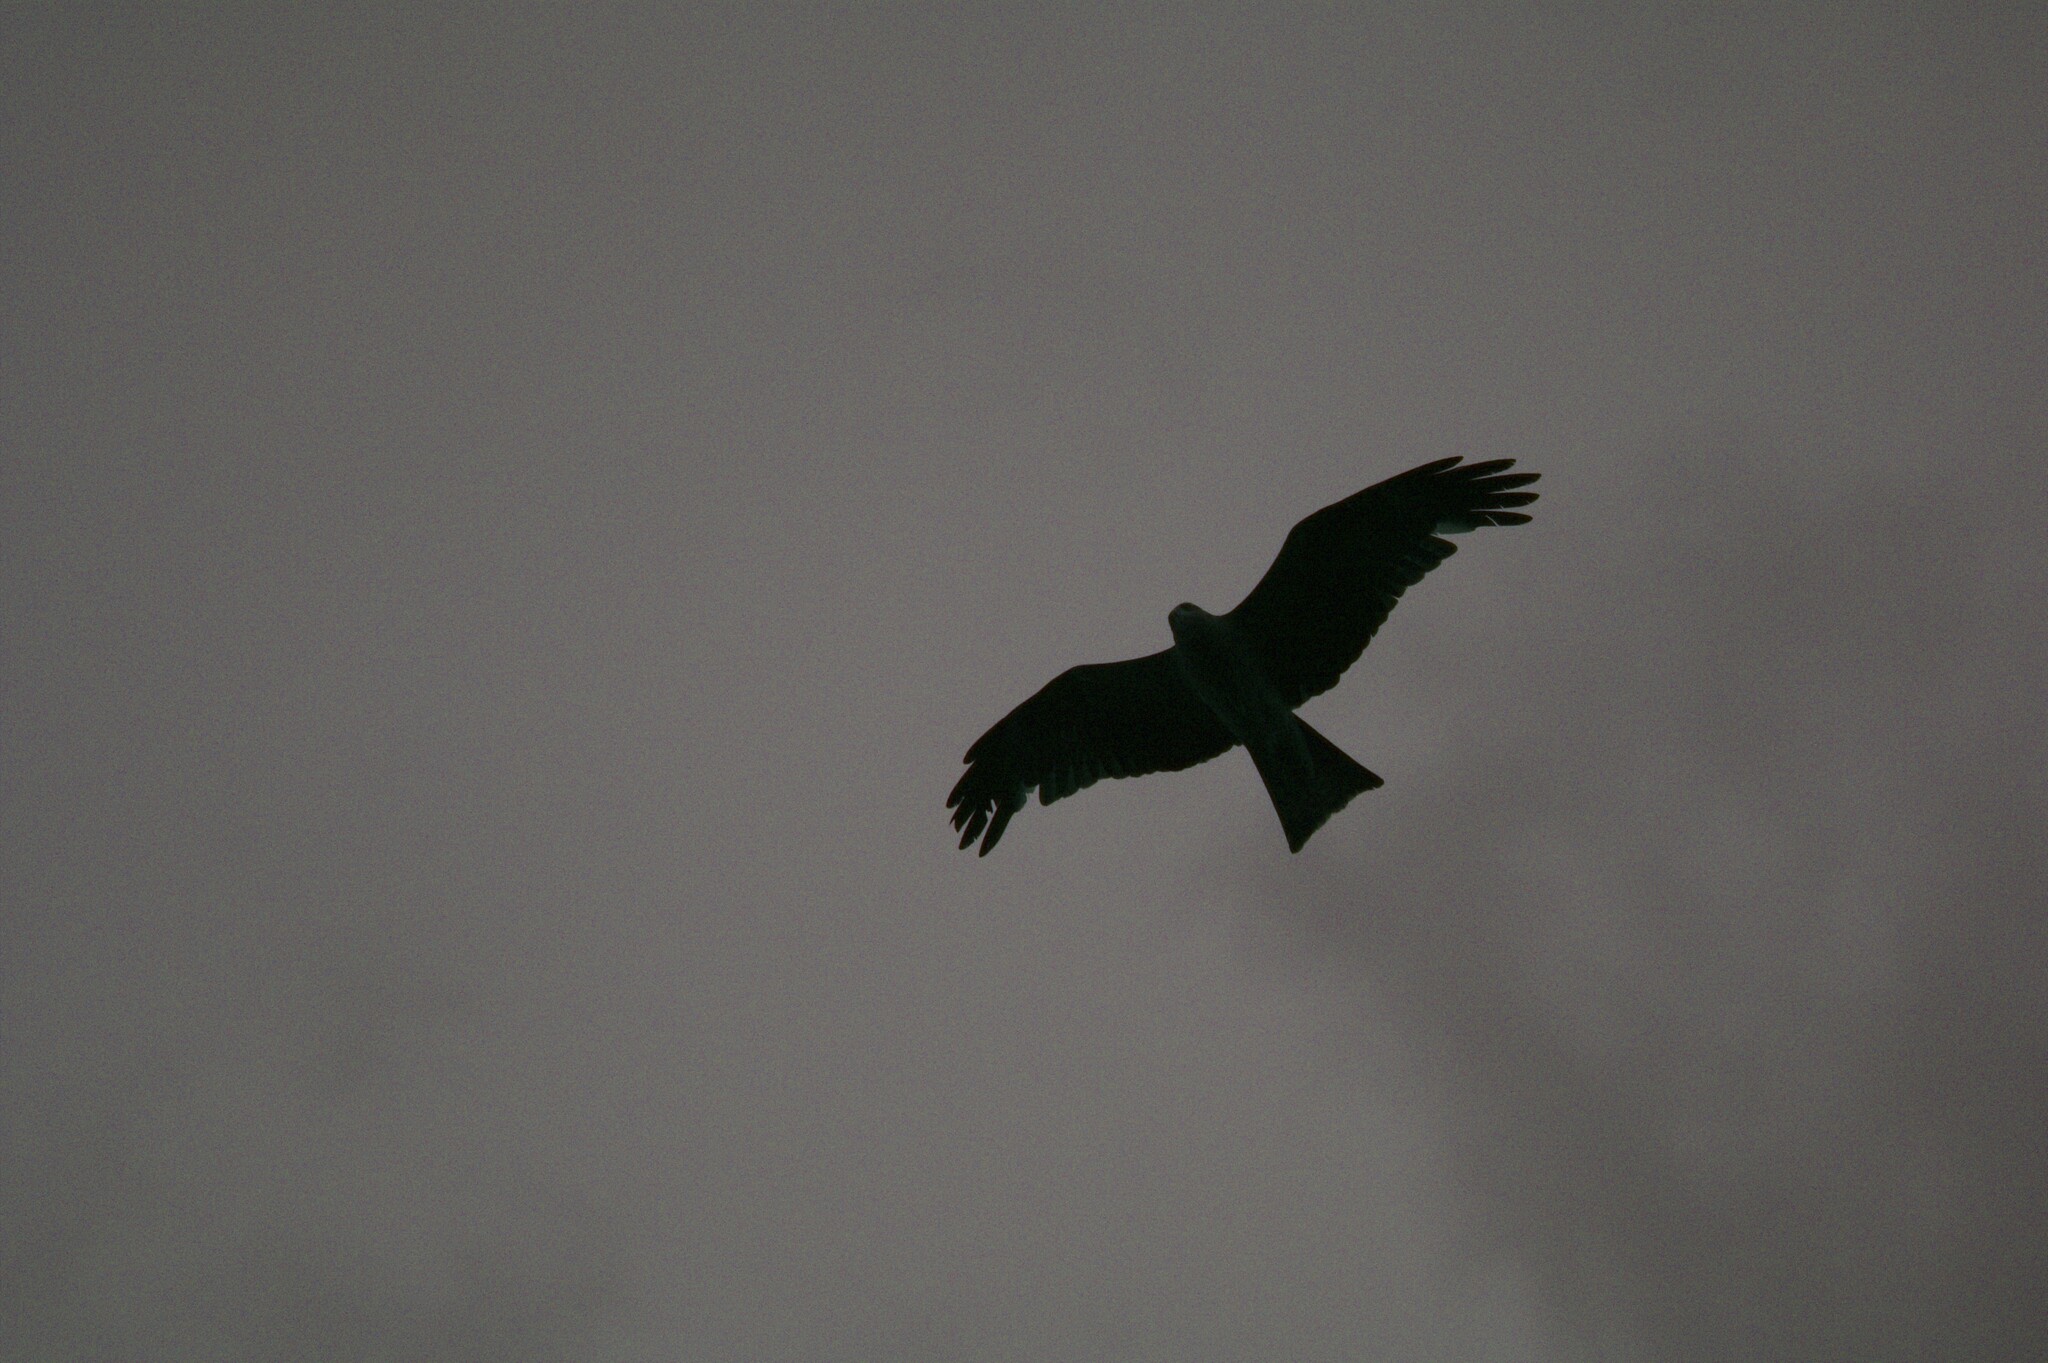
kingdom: Animalia
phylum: Chordata
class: Aves
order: Accipitriformes
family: Accipitridae
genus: Milvus
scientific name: Milvus migrans
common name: Black kite
